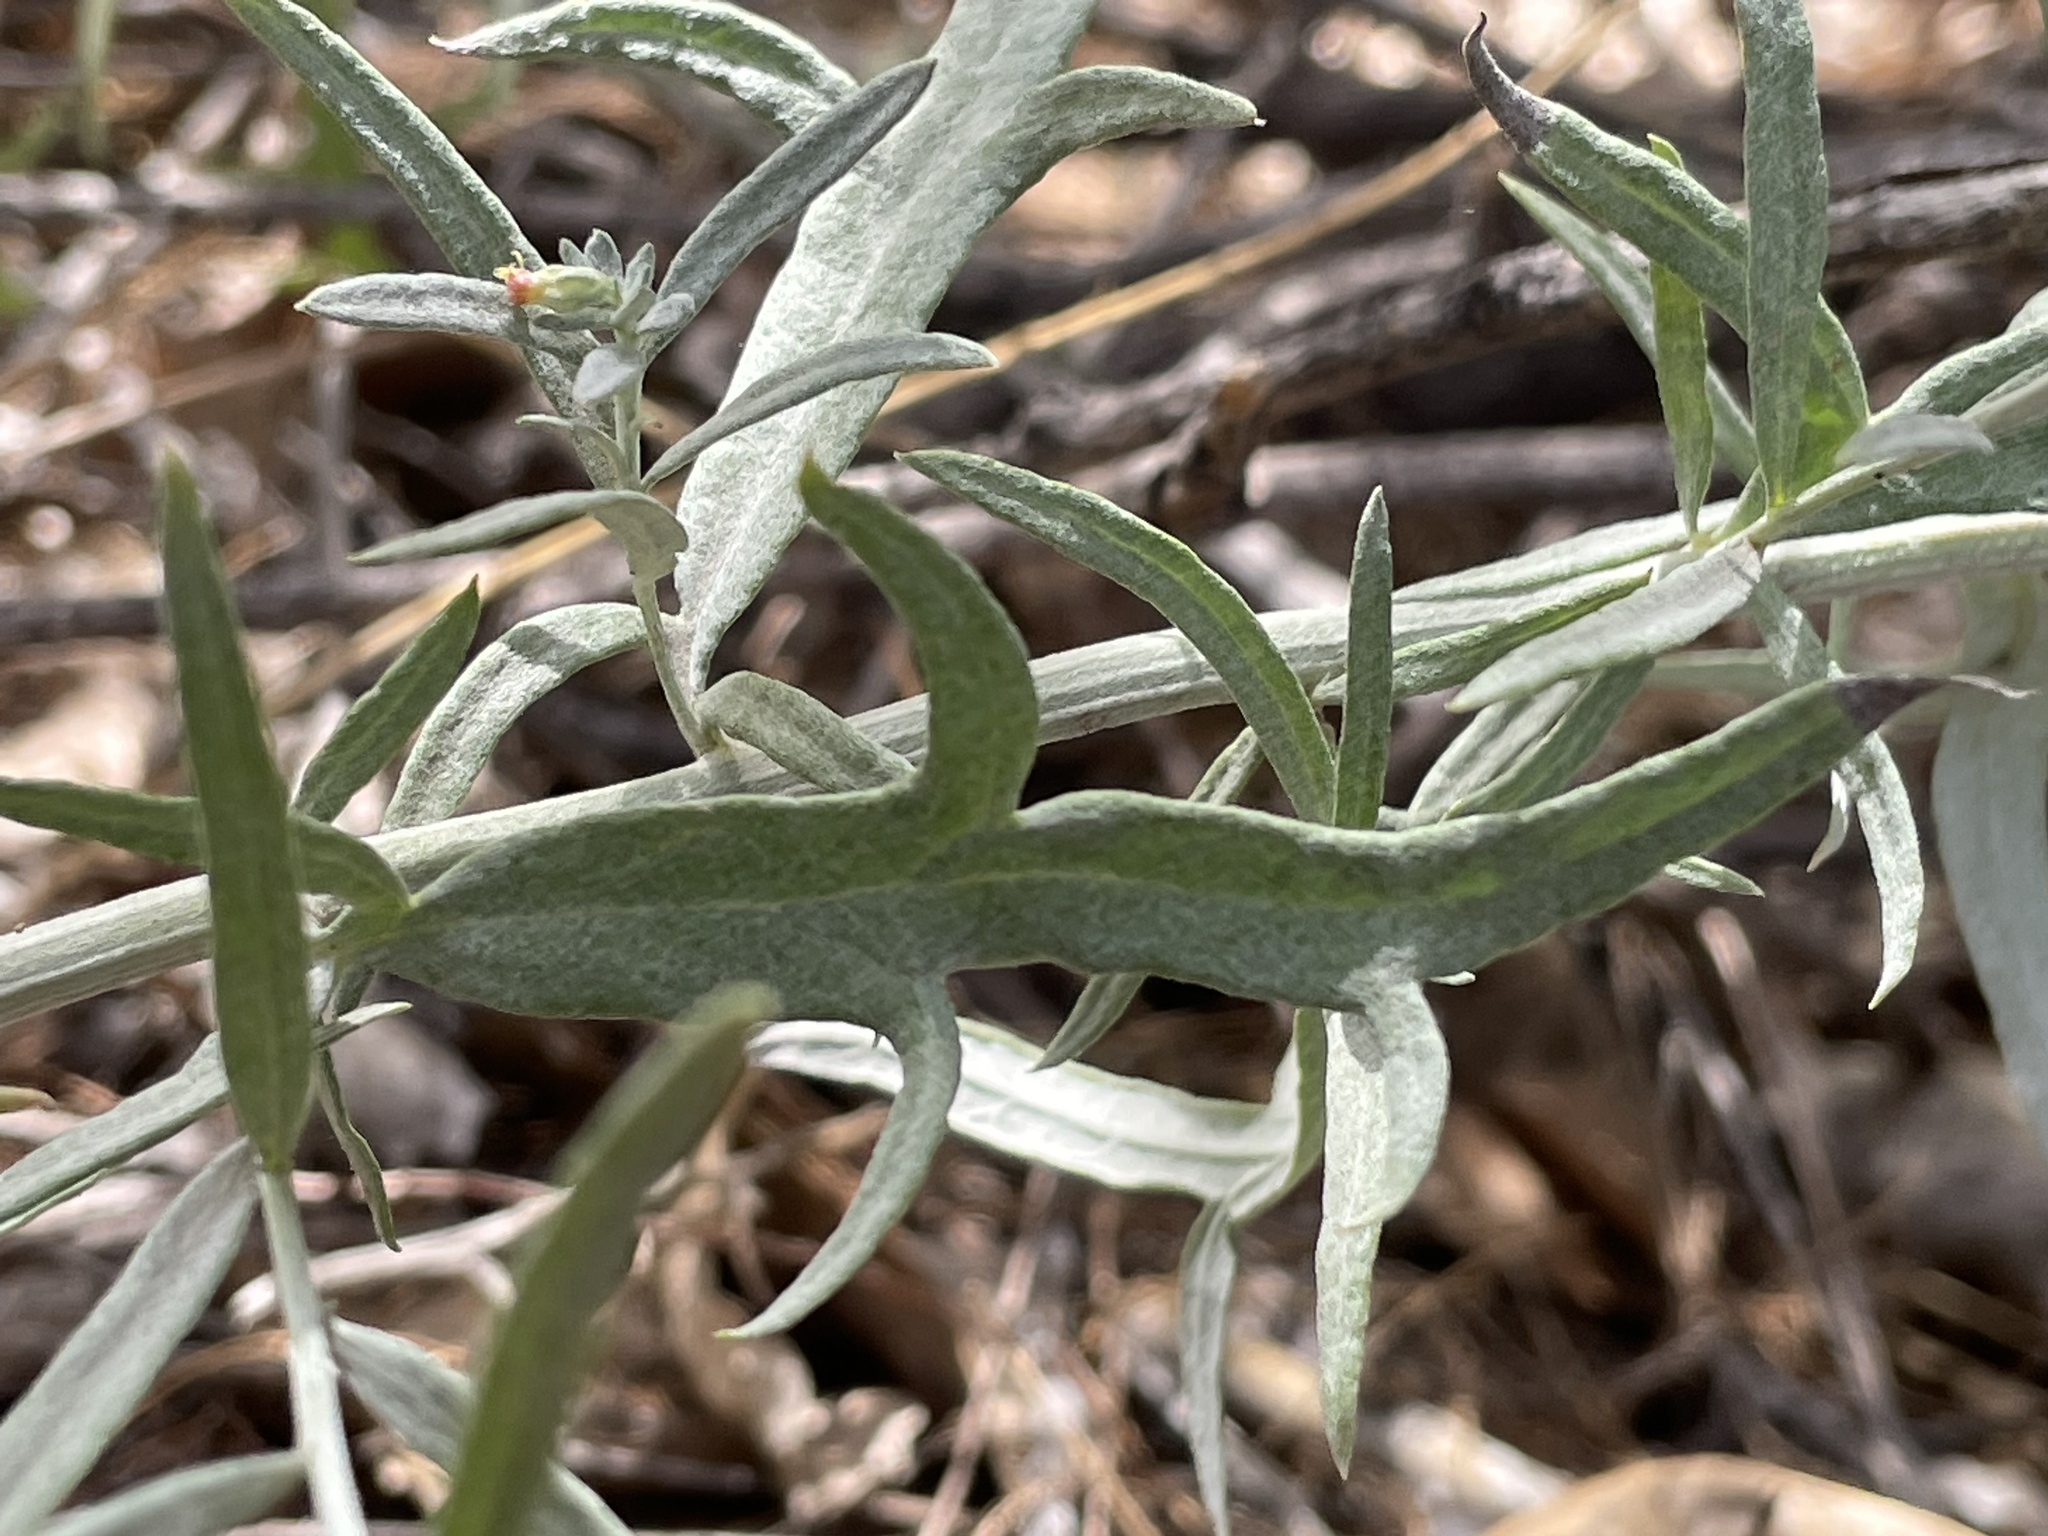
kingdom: Plantae
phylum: Tracheophyta
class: Magnoliopsida
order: Asterales
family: Asteraceae
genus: Artemisia
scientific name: Artemisia ludoviciana
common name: Western mugwort
